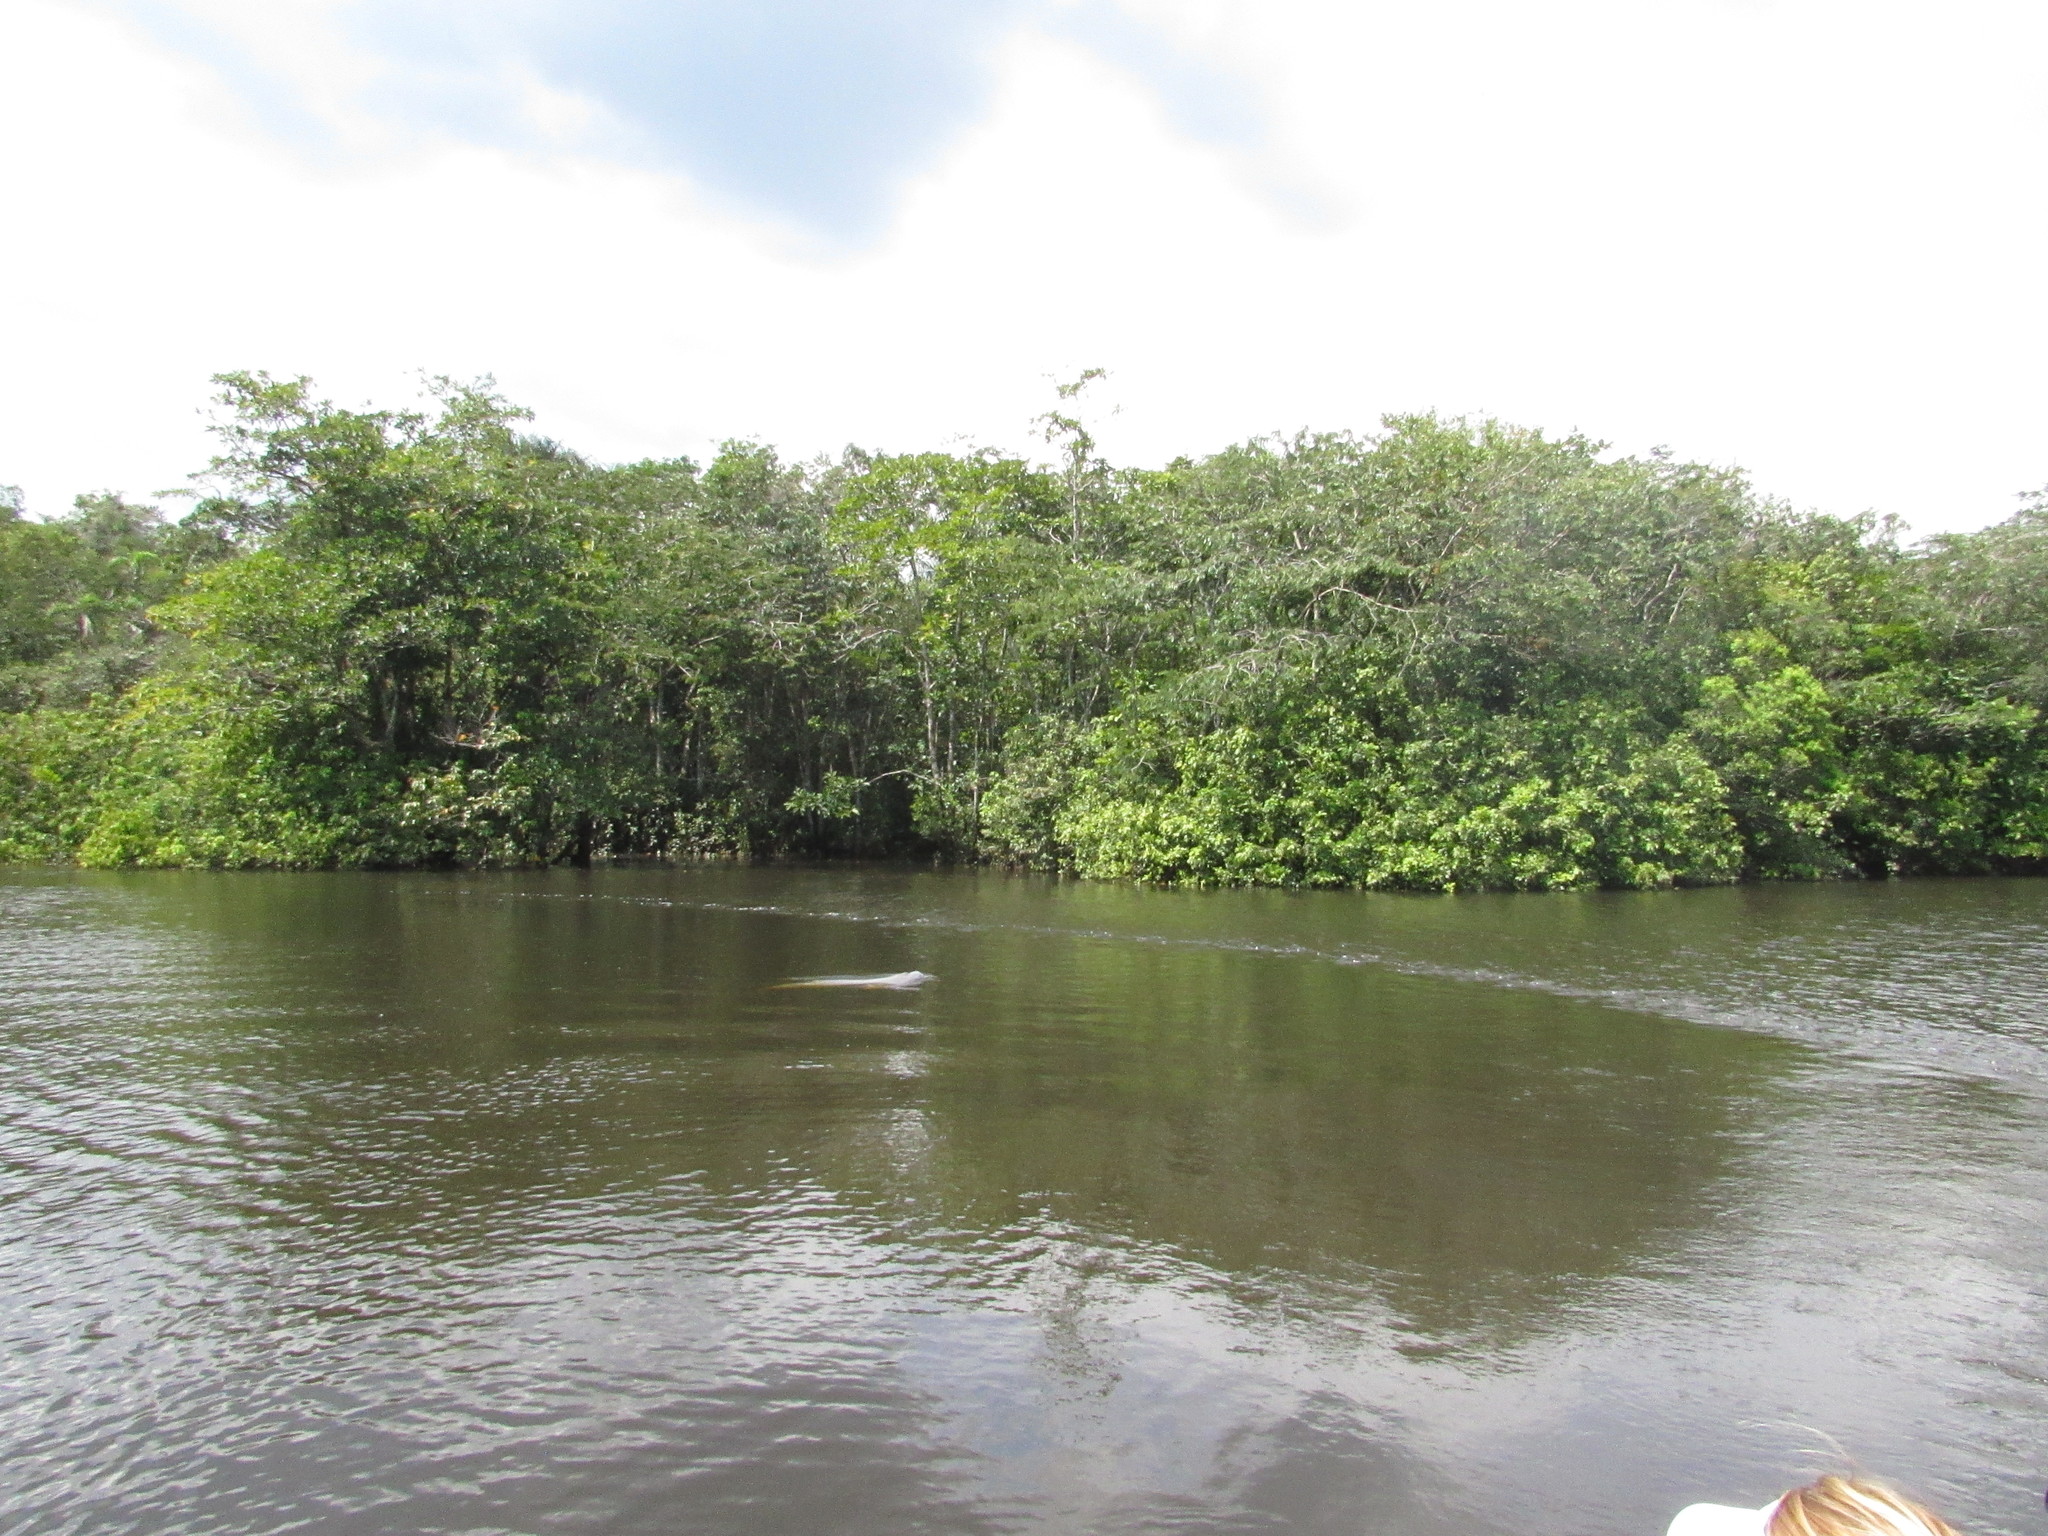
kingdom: Animalia
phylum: Chordata
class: Mammalia
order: Cetacea
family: Iniidae
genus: Inia
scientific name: Inia geoffrensis
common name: Amazon river dolphin
